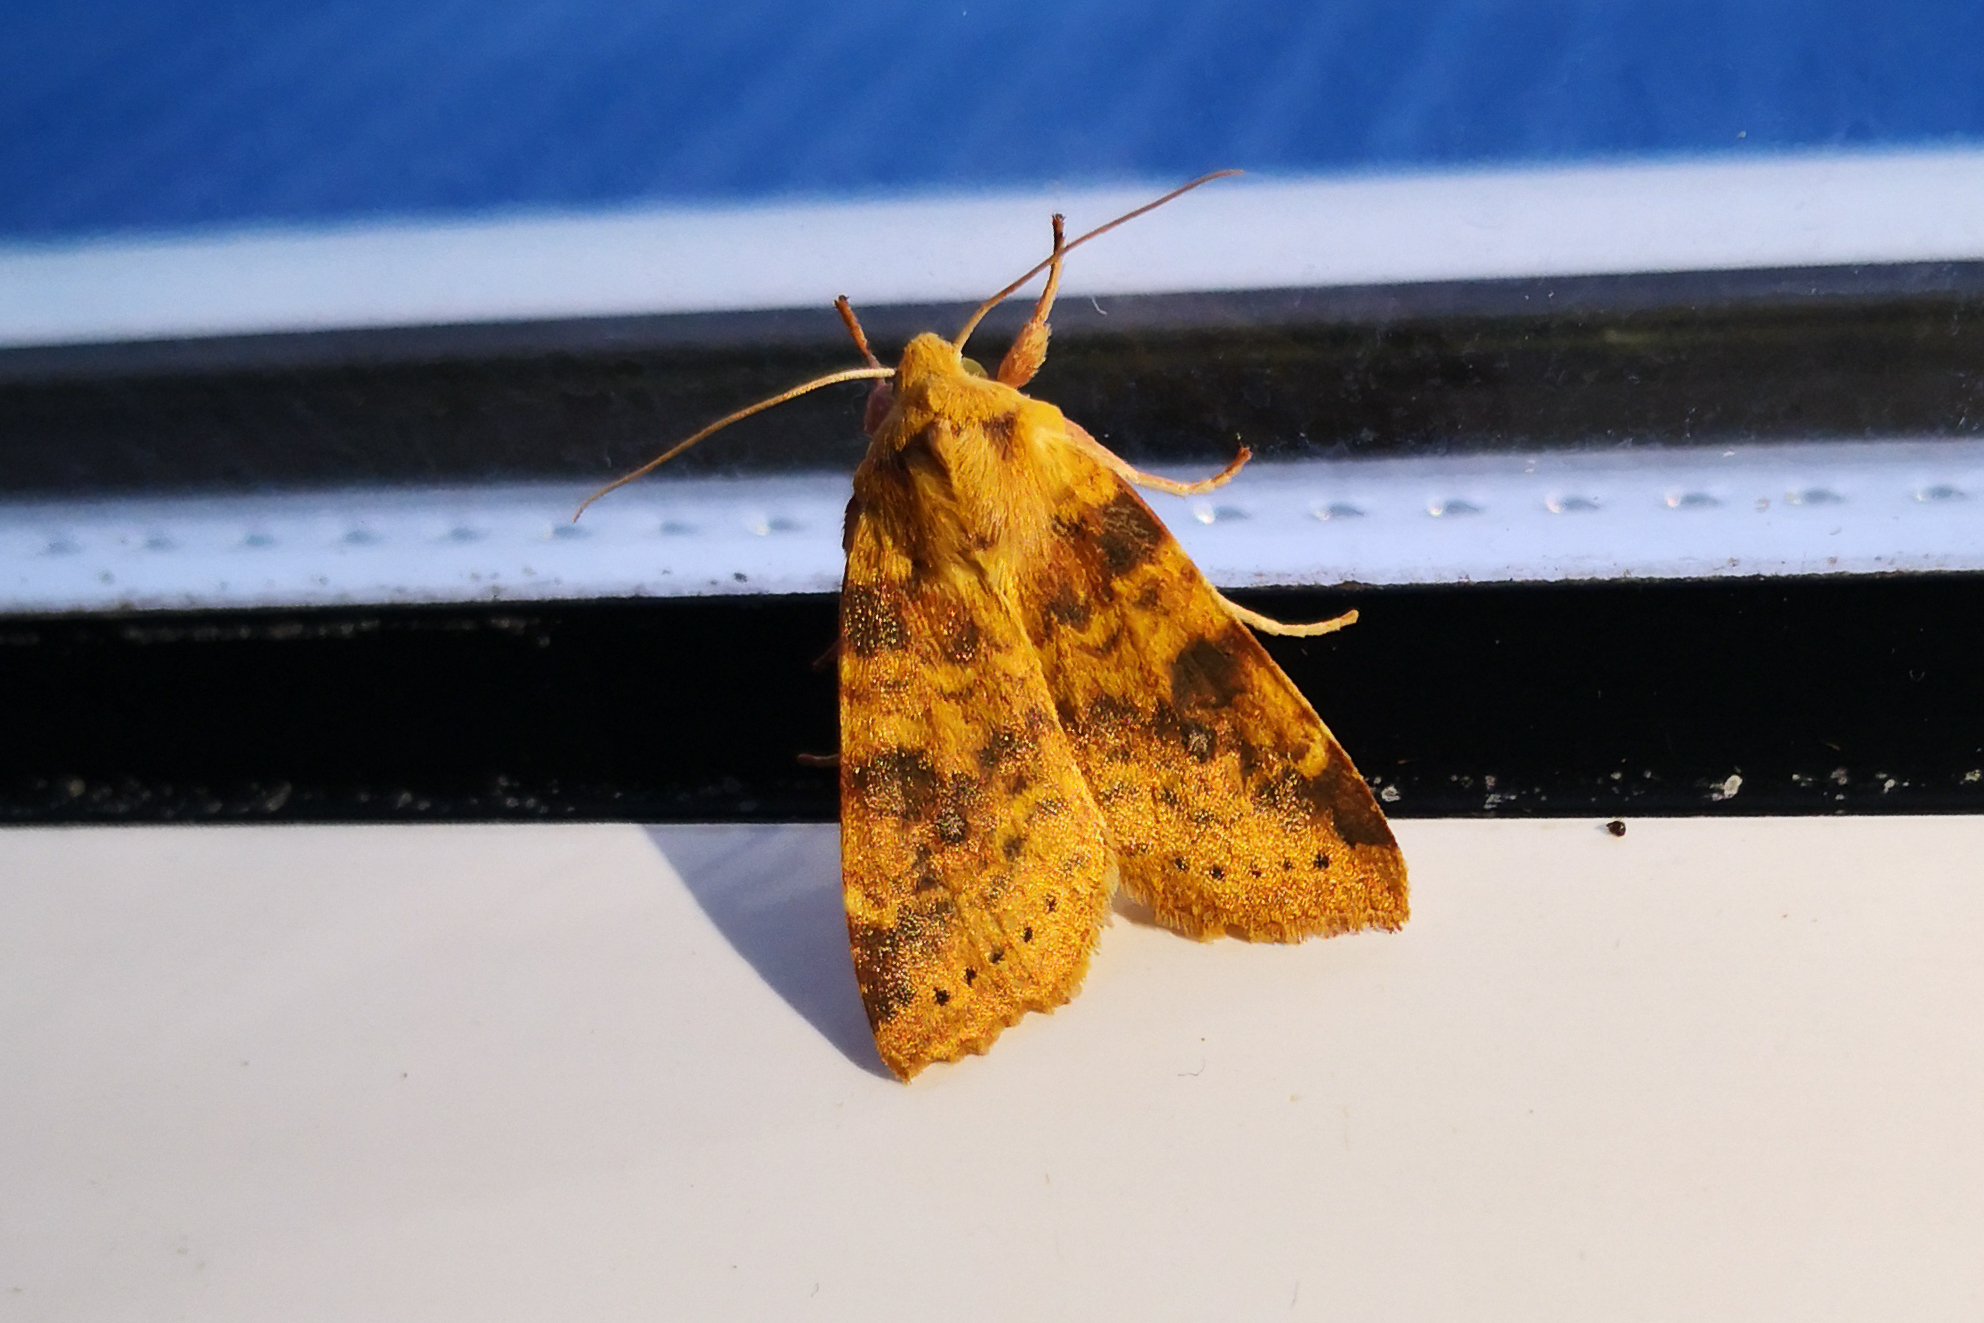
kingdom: Animalia
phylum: Arthropoda
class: Insecta
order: Lepidoptera
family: Noctuidae
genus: Xanthia
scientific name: Xanthia icteritia
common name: The sallow
